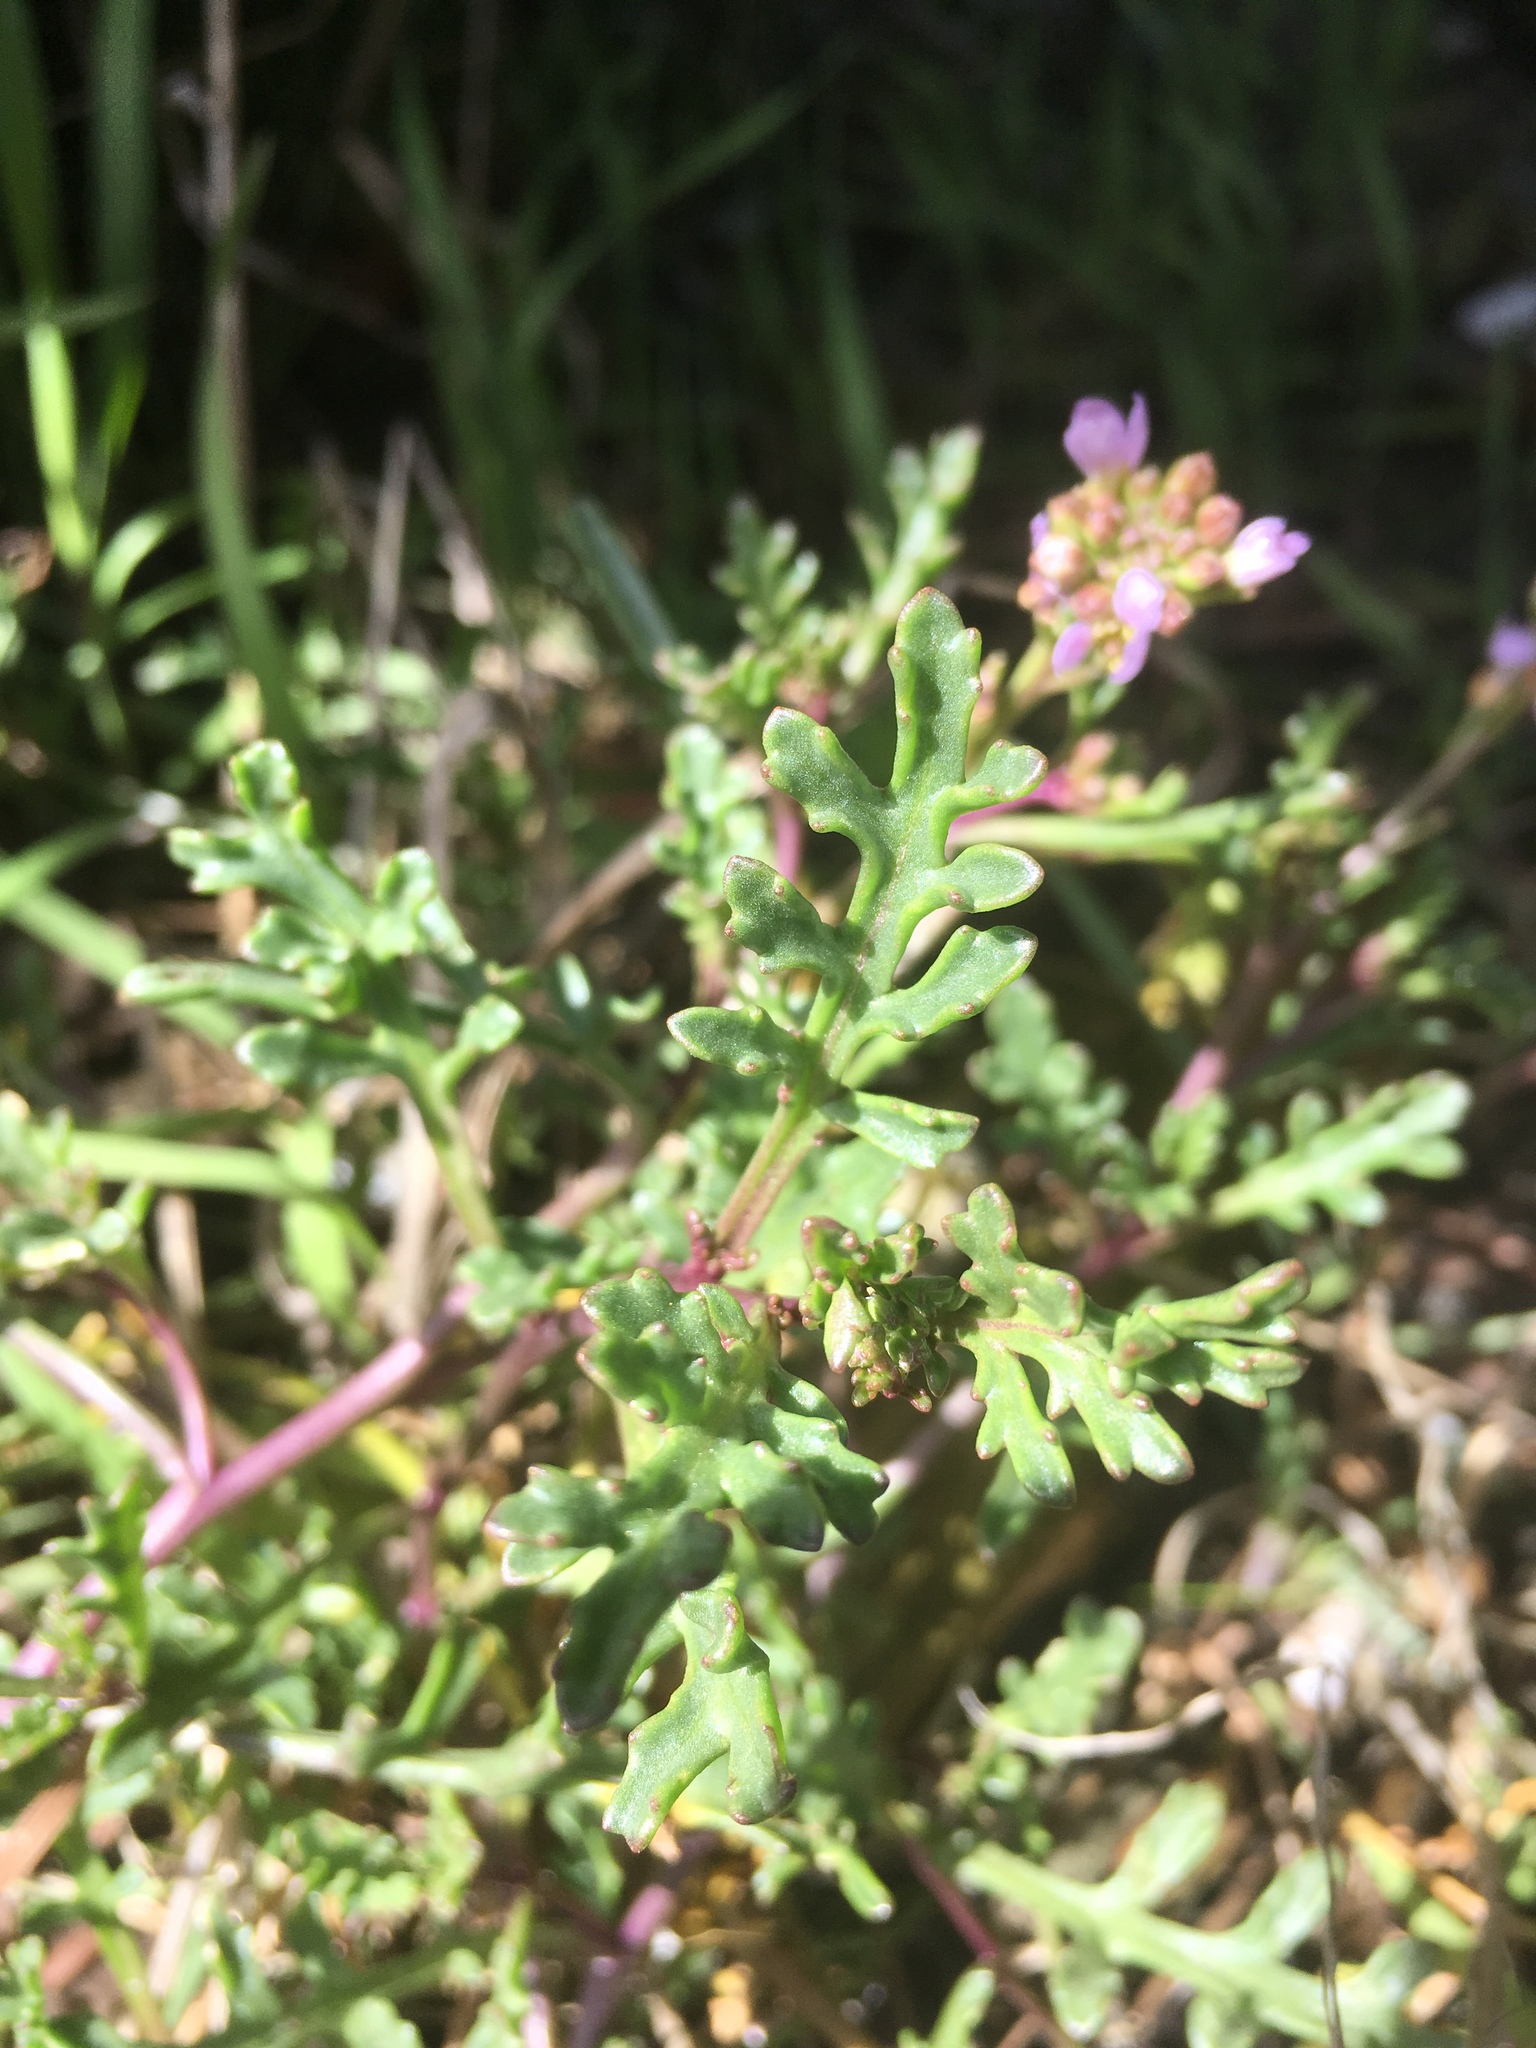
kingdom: Plantae
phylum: Tracheophyta
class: Magnoliopsida
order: Brassicales
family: Brassicaceae
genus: Cakile
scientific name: Cakile maritima
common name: Sea rocket
